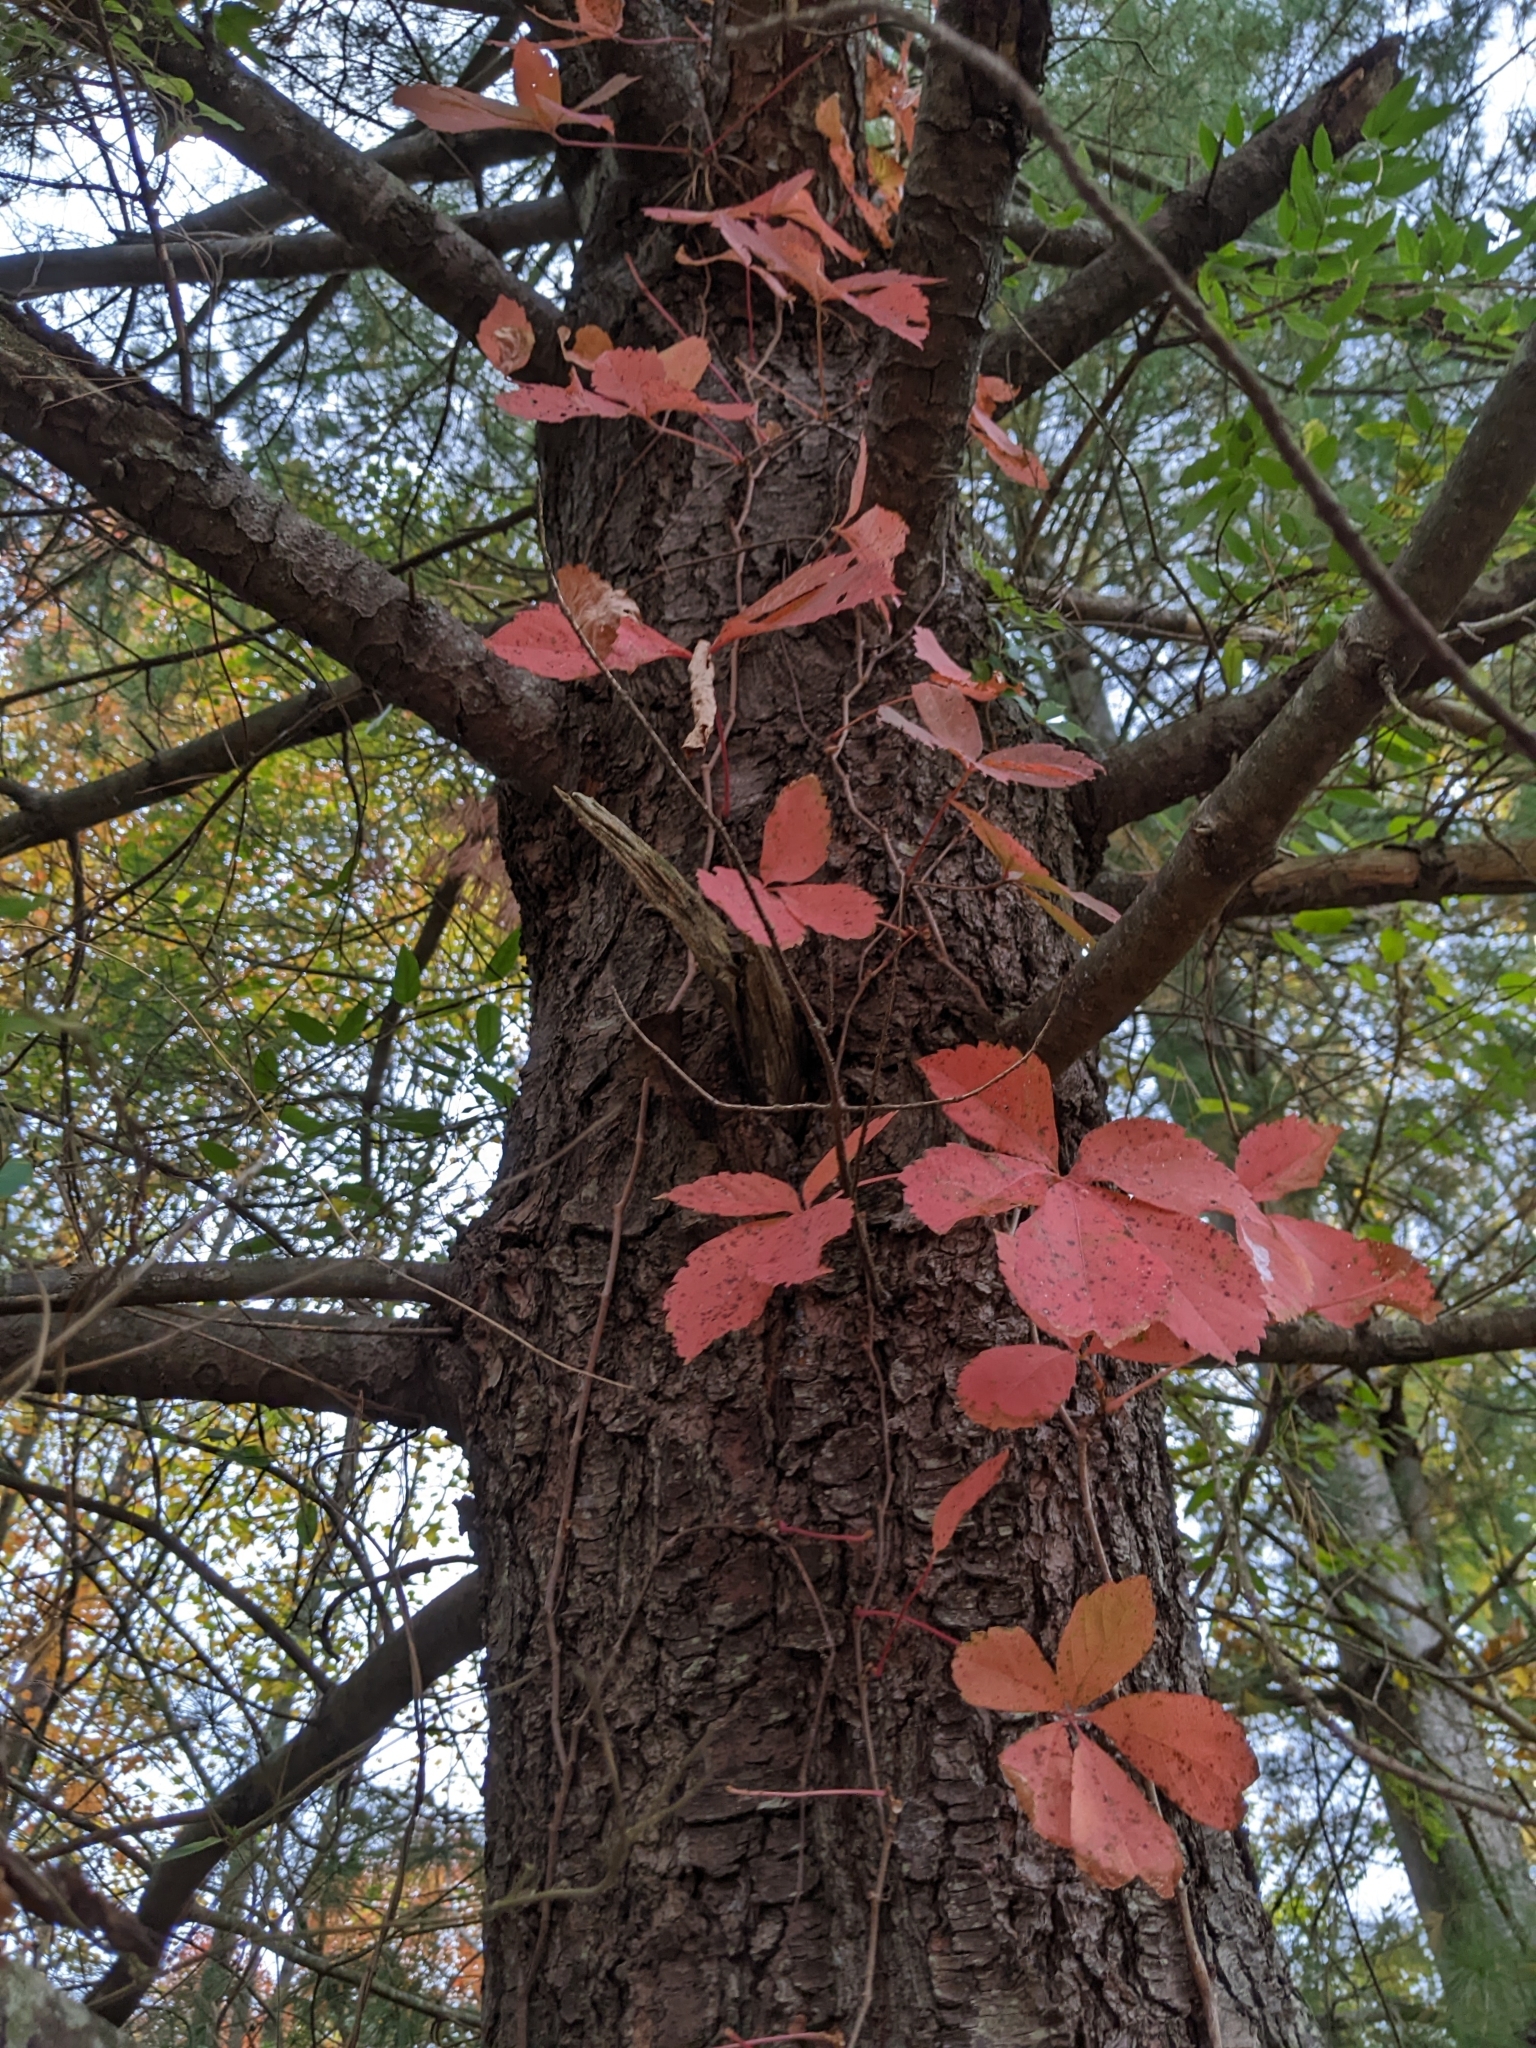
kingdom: Plantae
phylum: Tracheophyta
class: Magnoliopsida
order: Vitales
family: Vitaceae
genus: Parthenocissus
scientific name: Parthenocissus quinquefolia
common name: Virginia-creeper
